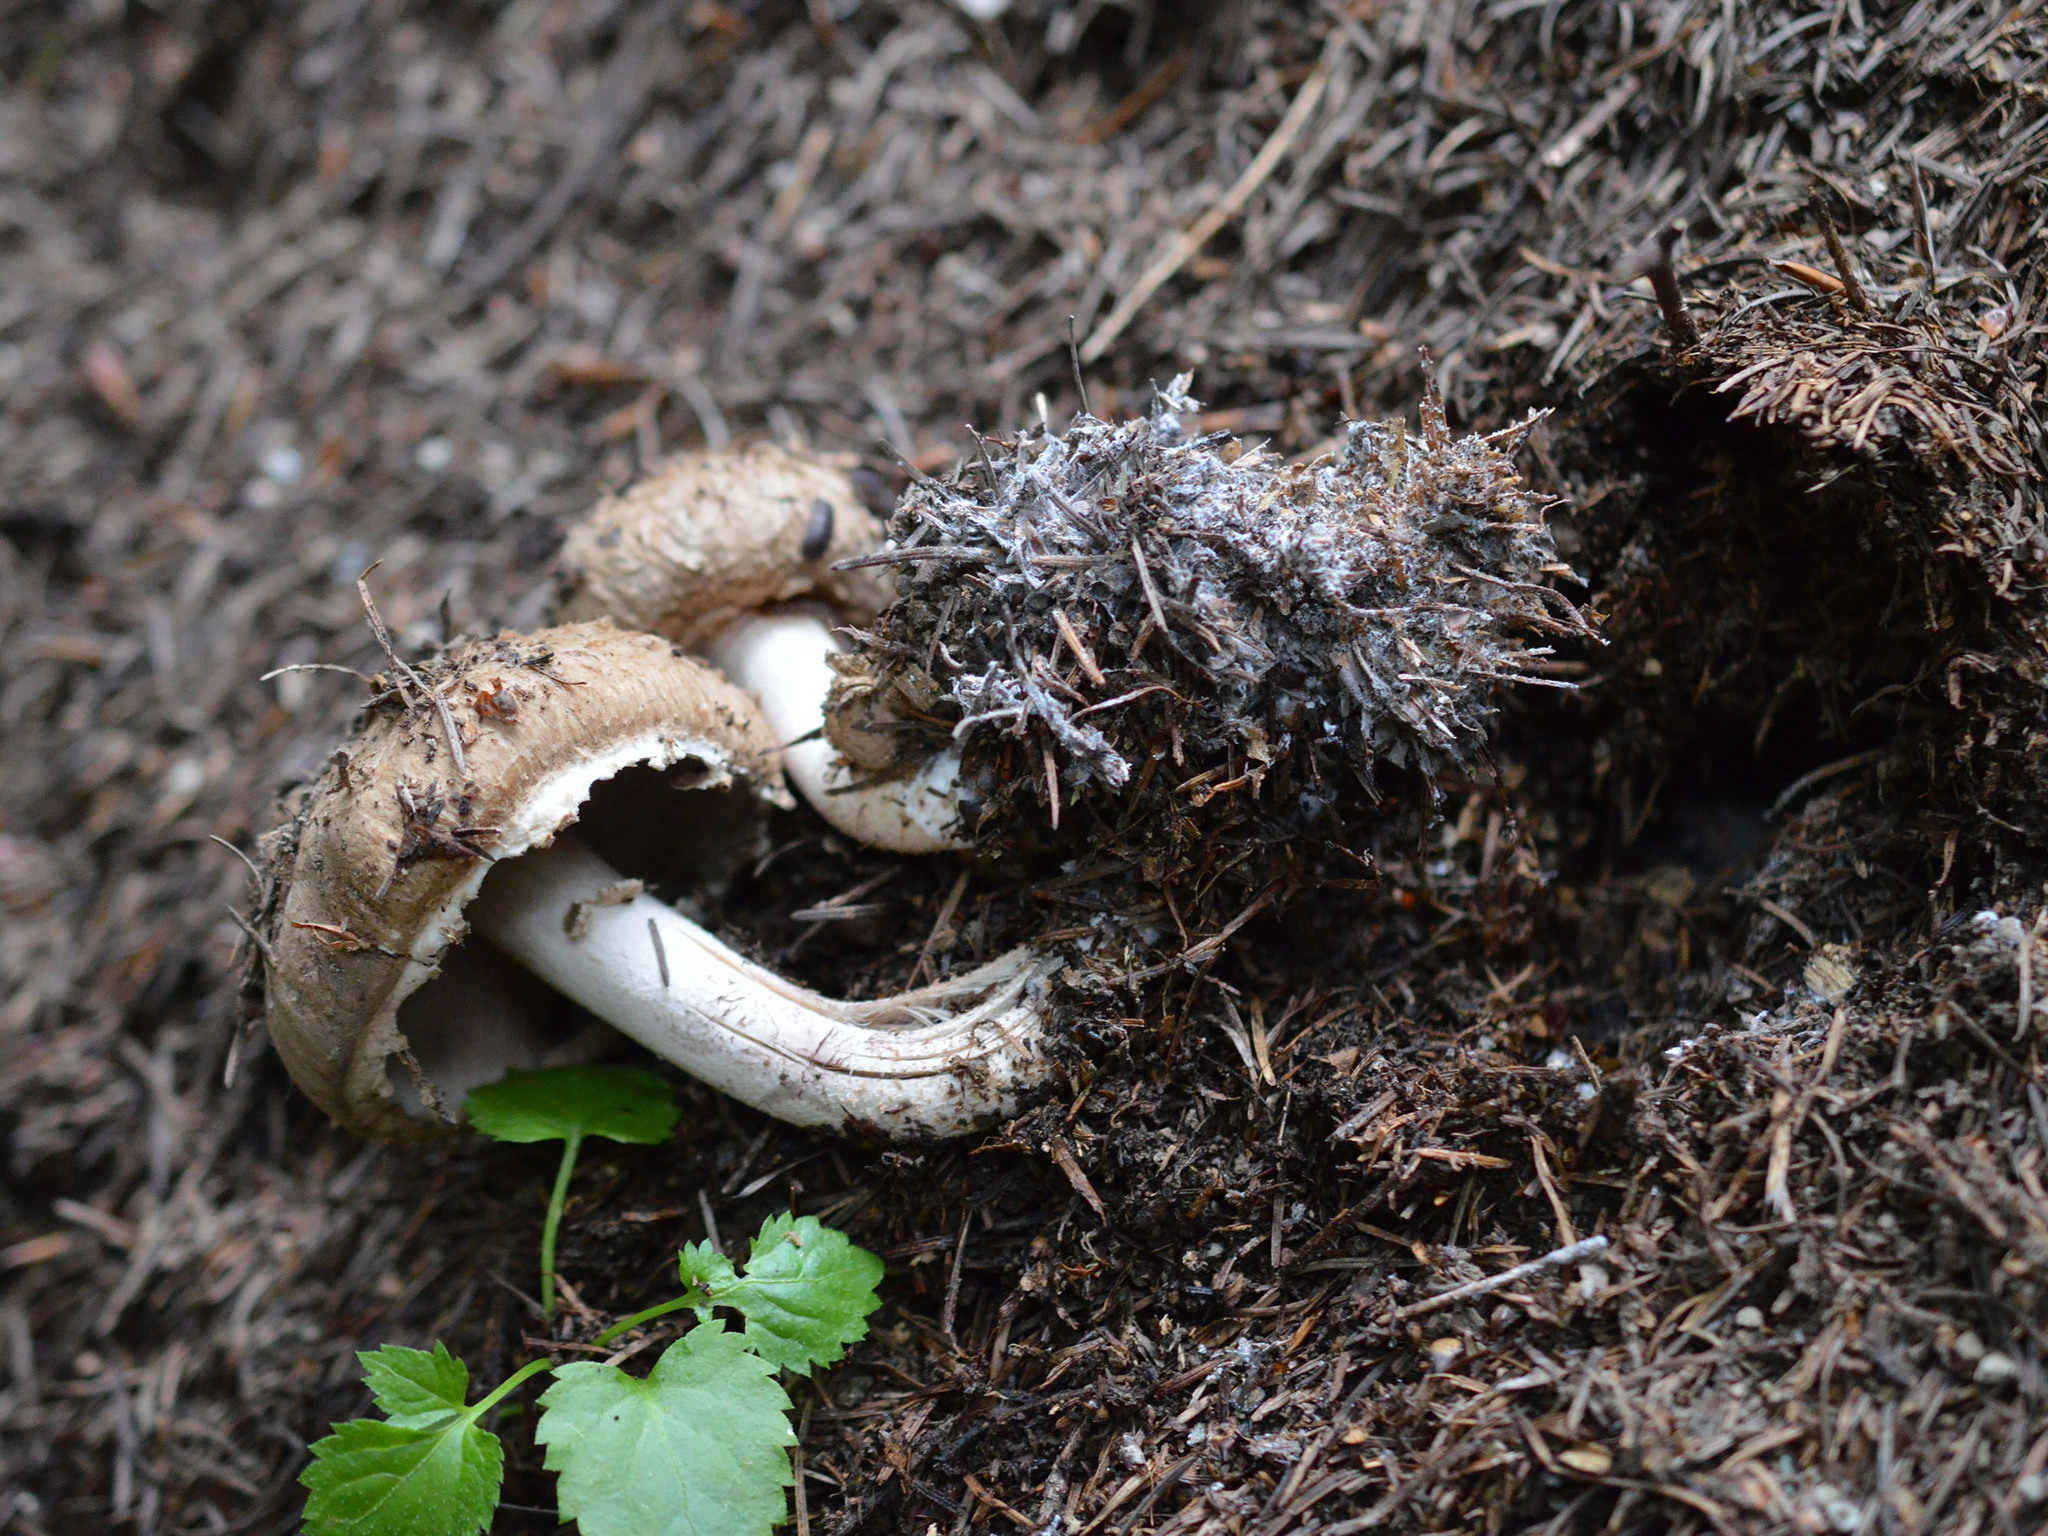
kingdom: Fungi
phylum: Basidiomycota
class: Agaricomycetes
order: Agaricales
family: Agaricaceae
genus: Agaricus
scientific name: Agaricus sylvaticus
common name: Blushing wood mushroom
